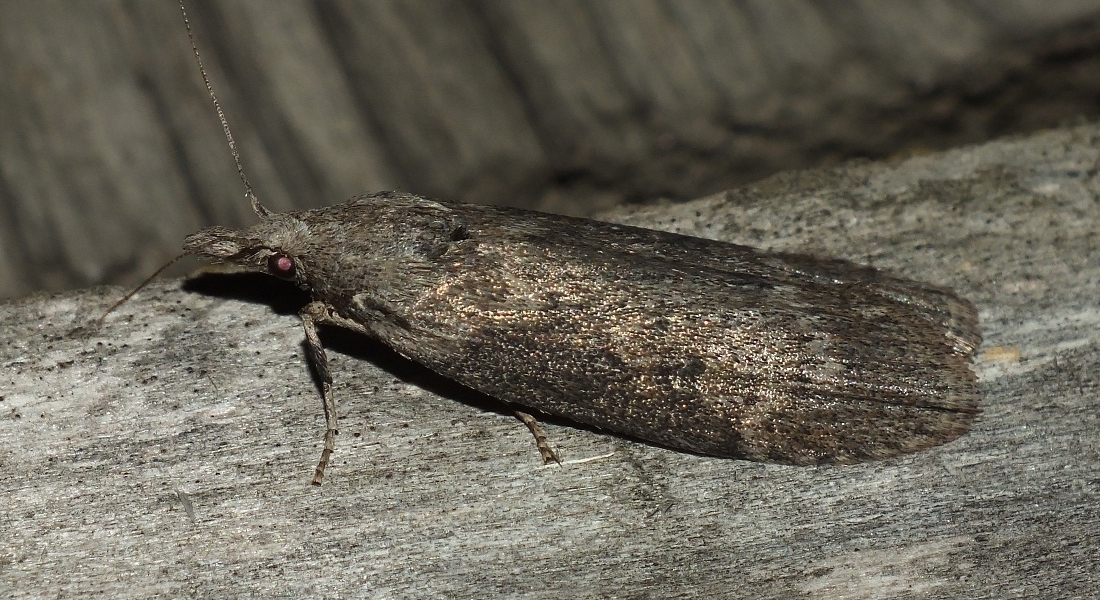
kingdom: Animalia
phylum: Arthropoda
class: Insecta
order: Lepidoptera
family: Pyralidae
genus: Lamoria
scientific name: Lamoria anella
